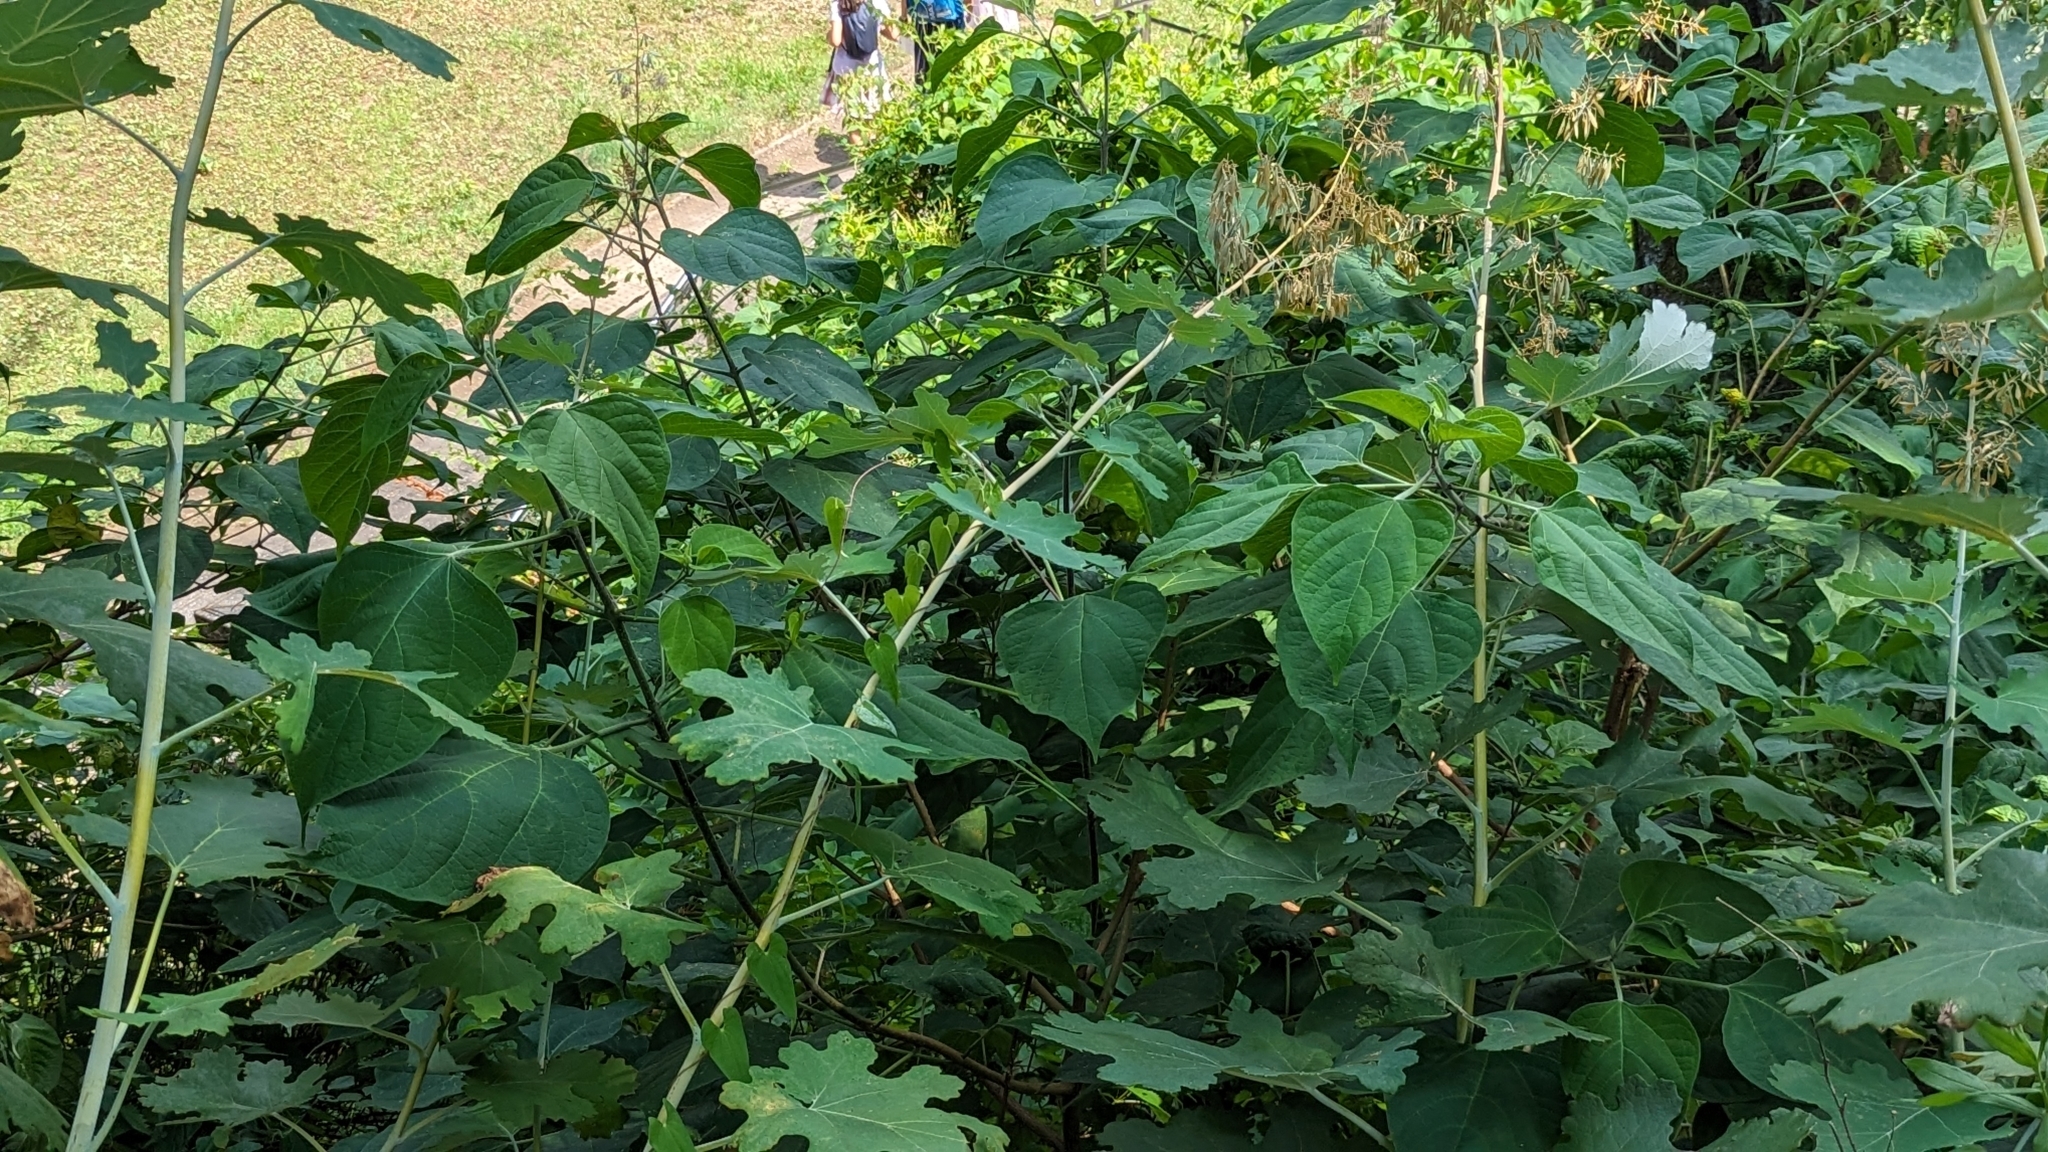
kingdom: Plantae
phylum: Tracheophyta
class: Magnoliopsida
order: Ranunculales
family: Papaveraceae
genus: Macleaya
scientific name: Macleaya cordata
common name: Plume poppy
